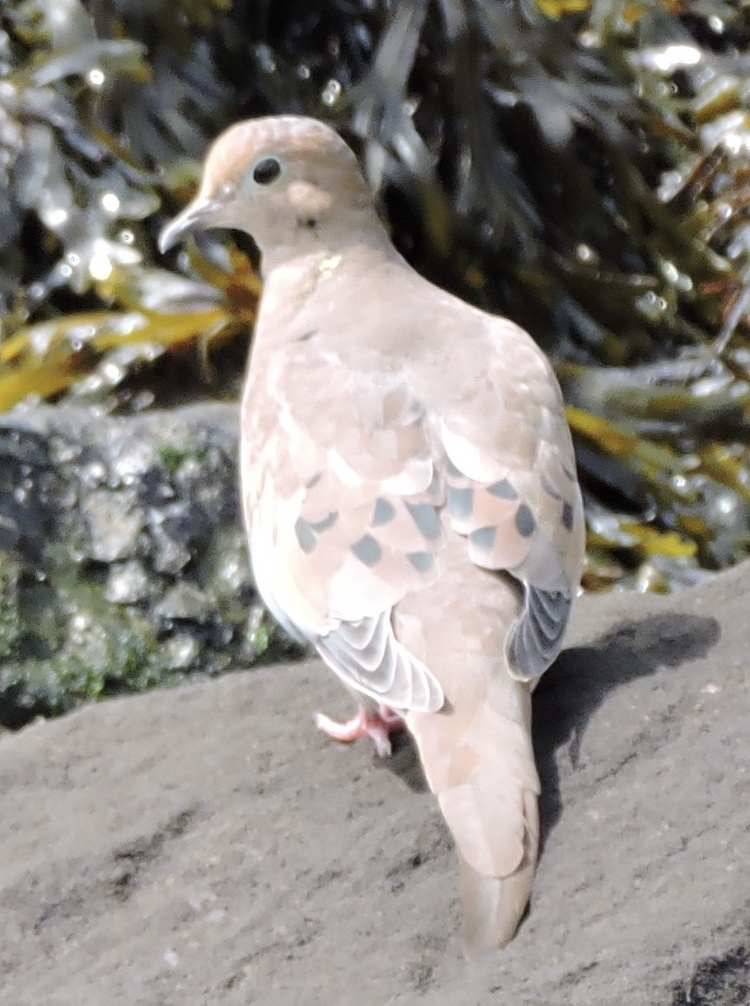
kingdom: Animalia
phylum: Chordata
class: Aves
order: Columbiformes
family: Columbidae
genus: Zenaida
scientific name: Zenaida macroura
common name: Mourning dove
